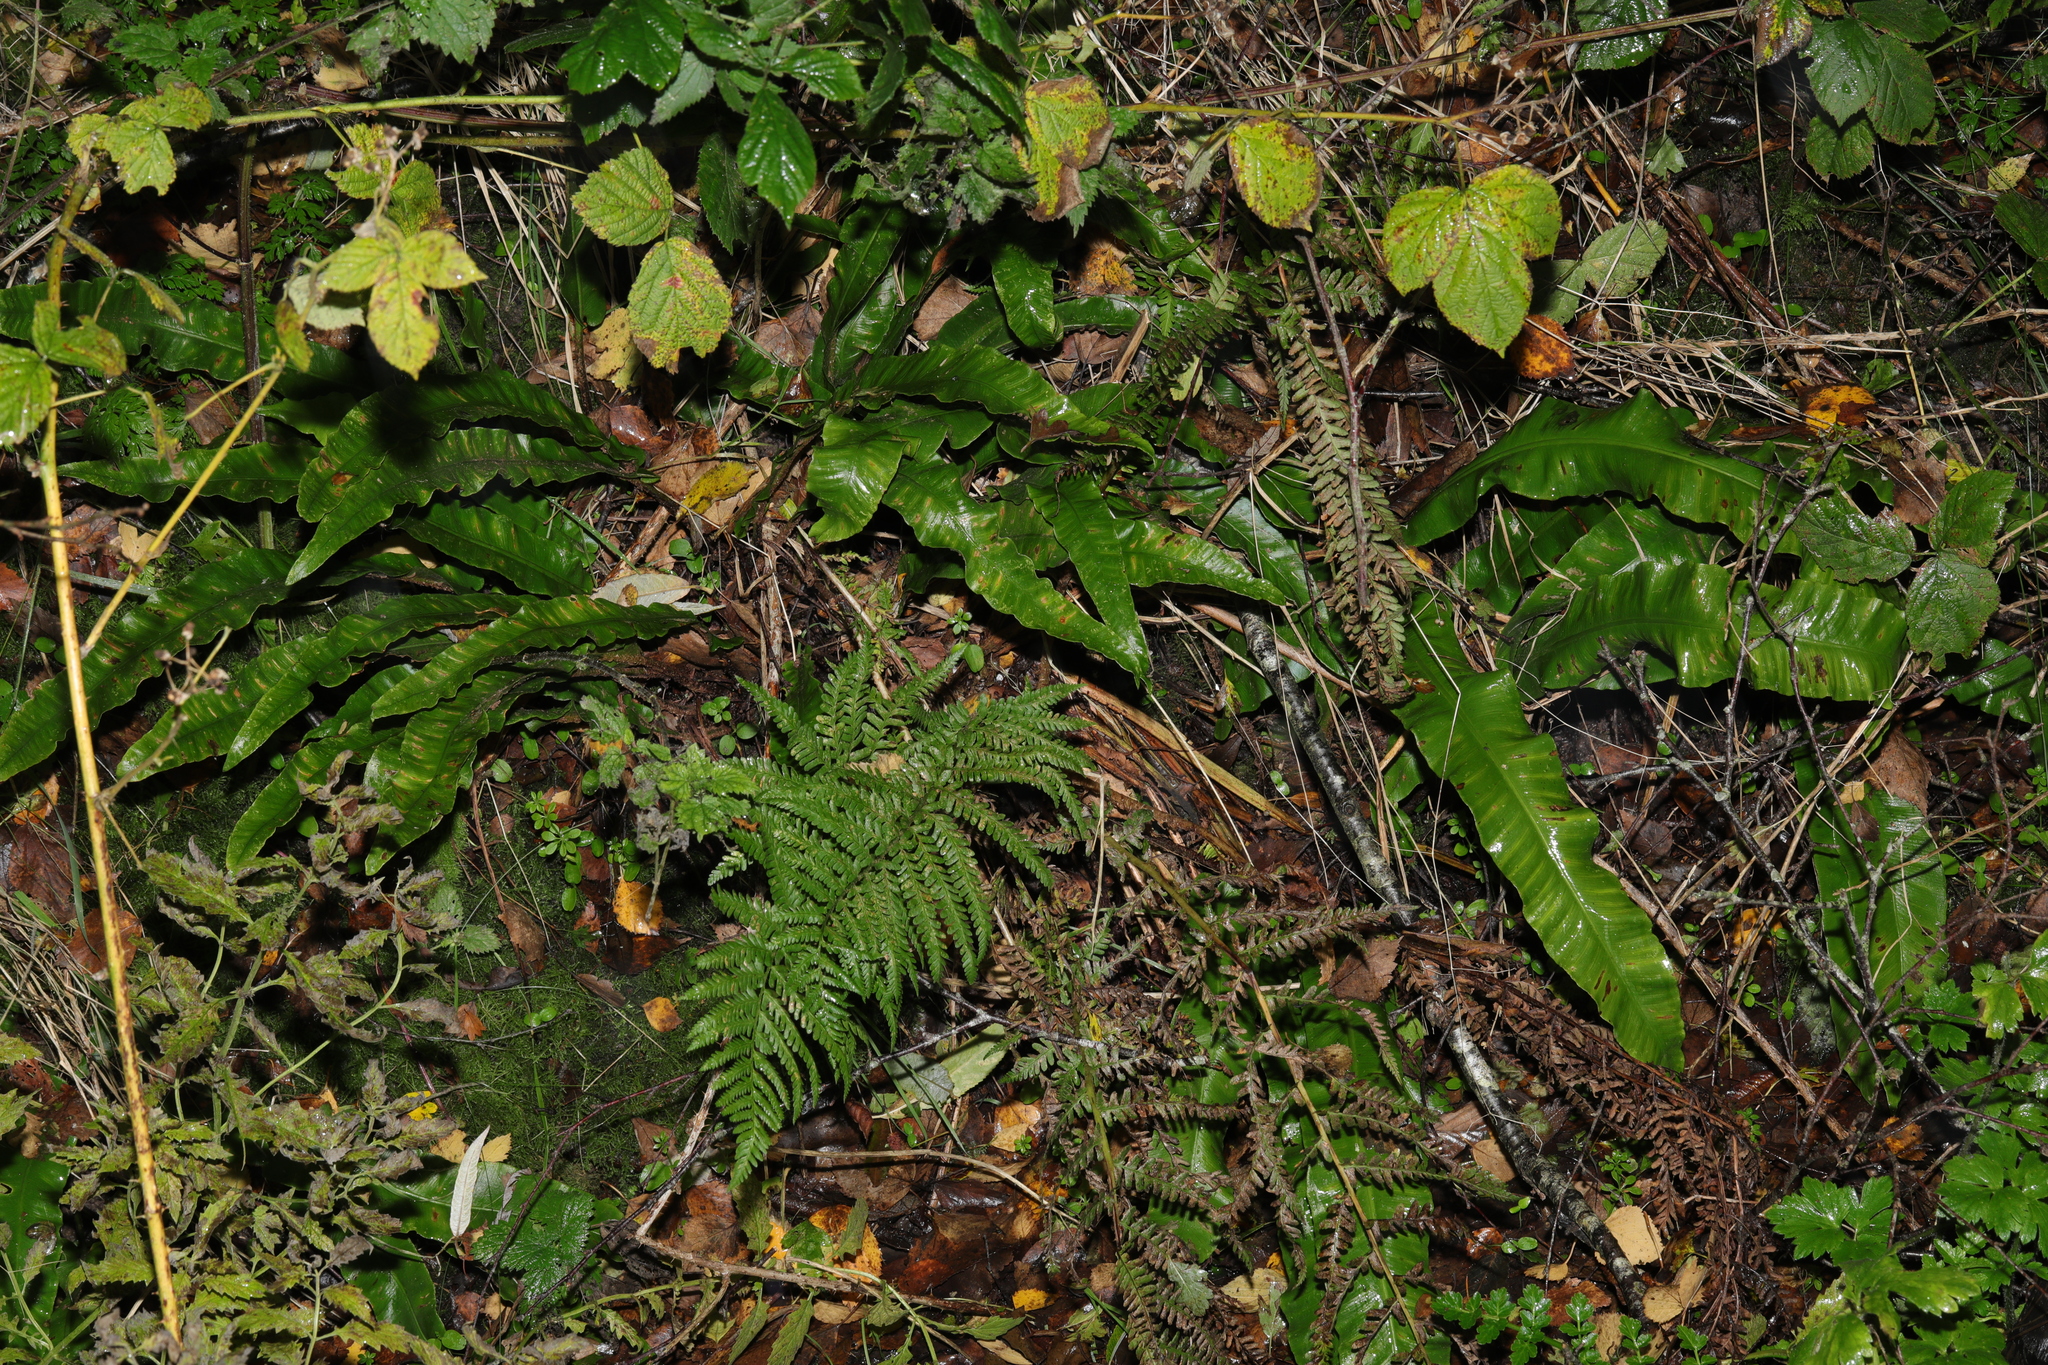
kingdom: Plantae
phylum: Tracheophyta
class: Polypodiopsida
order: Polypodiales
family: Aspleniaceae
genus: Asplenium
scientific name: Asplenium scolopendrium
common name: Hart's-tongue fern
